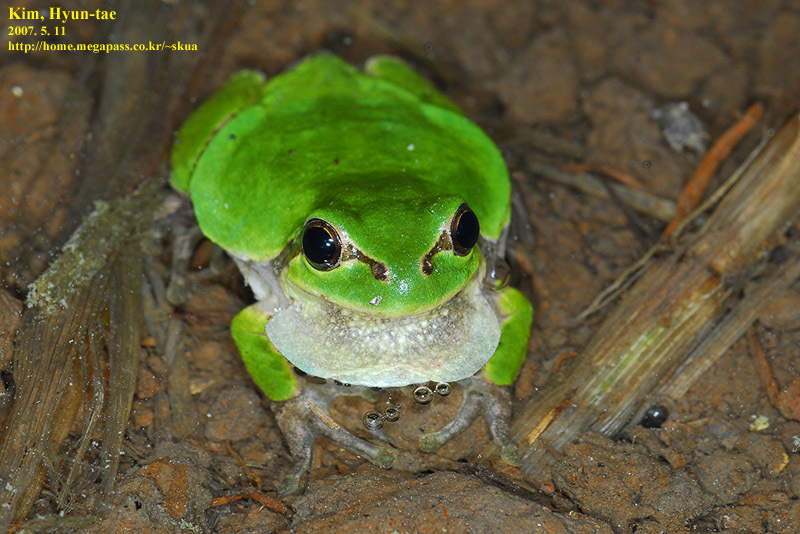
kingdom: Animalia
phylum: Chordata
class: Amphibia
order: Anura
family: Hylidae
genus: Dryophytes
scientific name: Dryophytes japonicus
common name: Japanese treefrog
